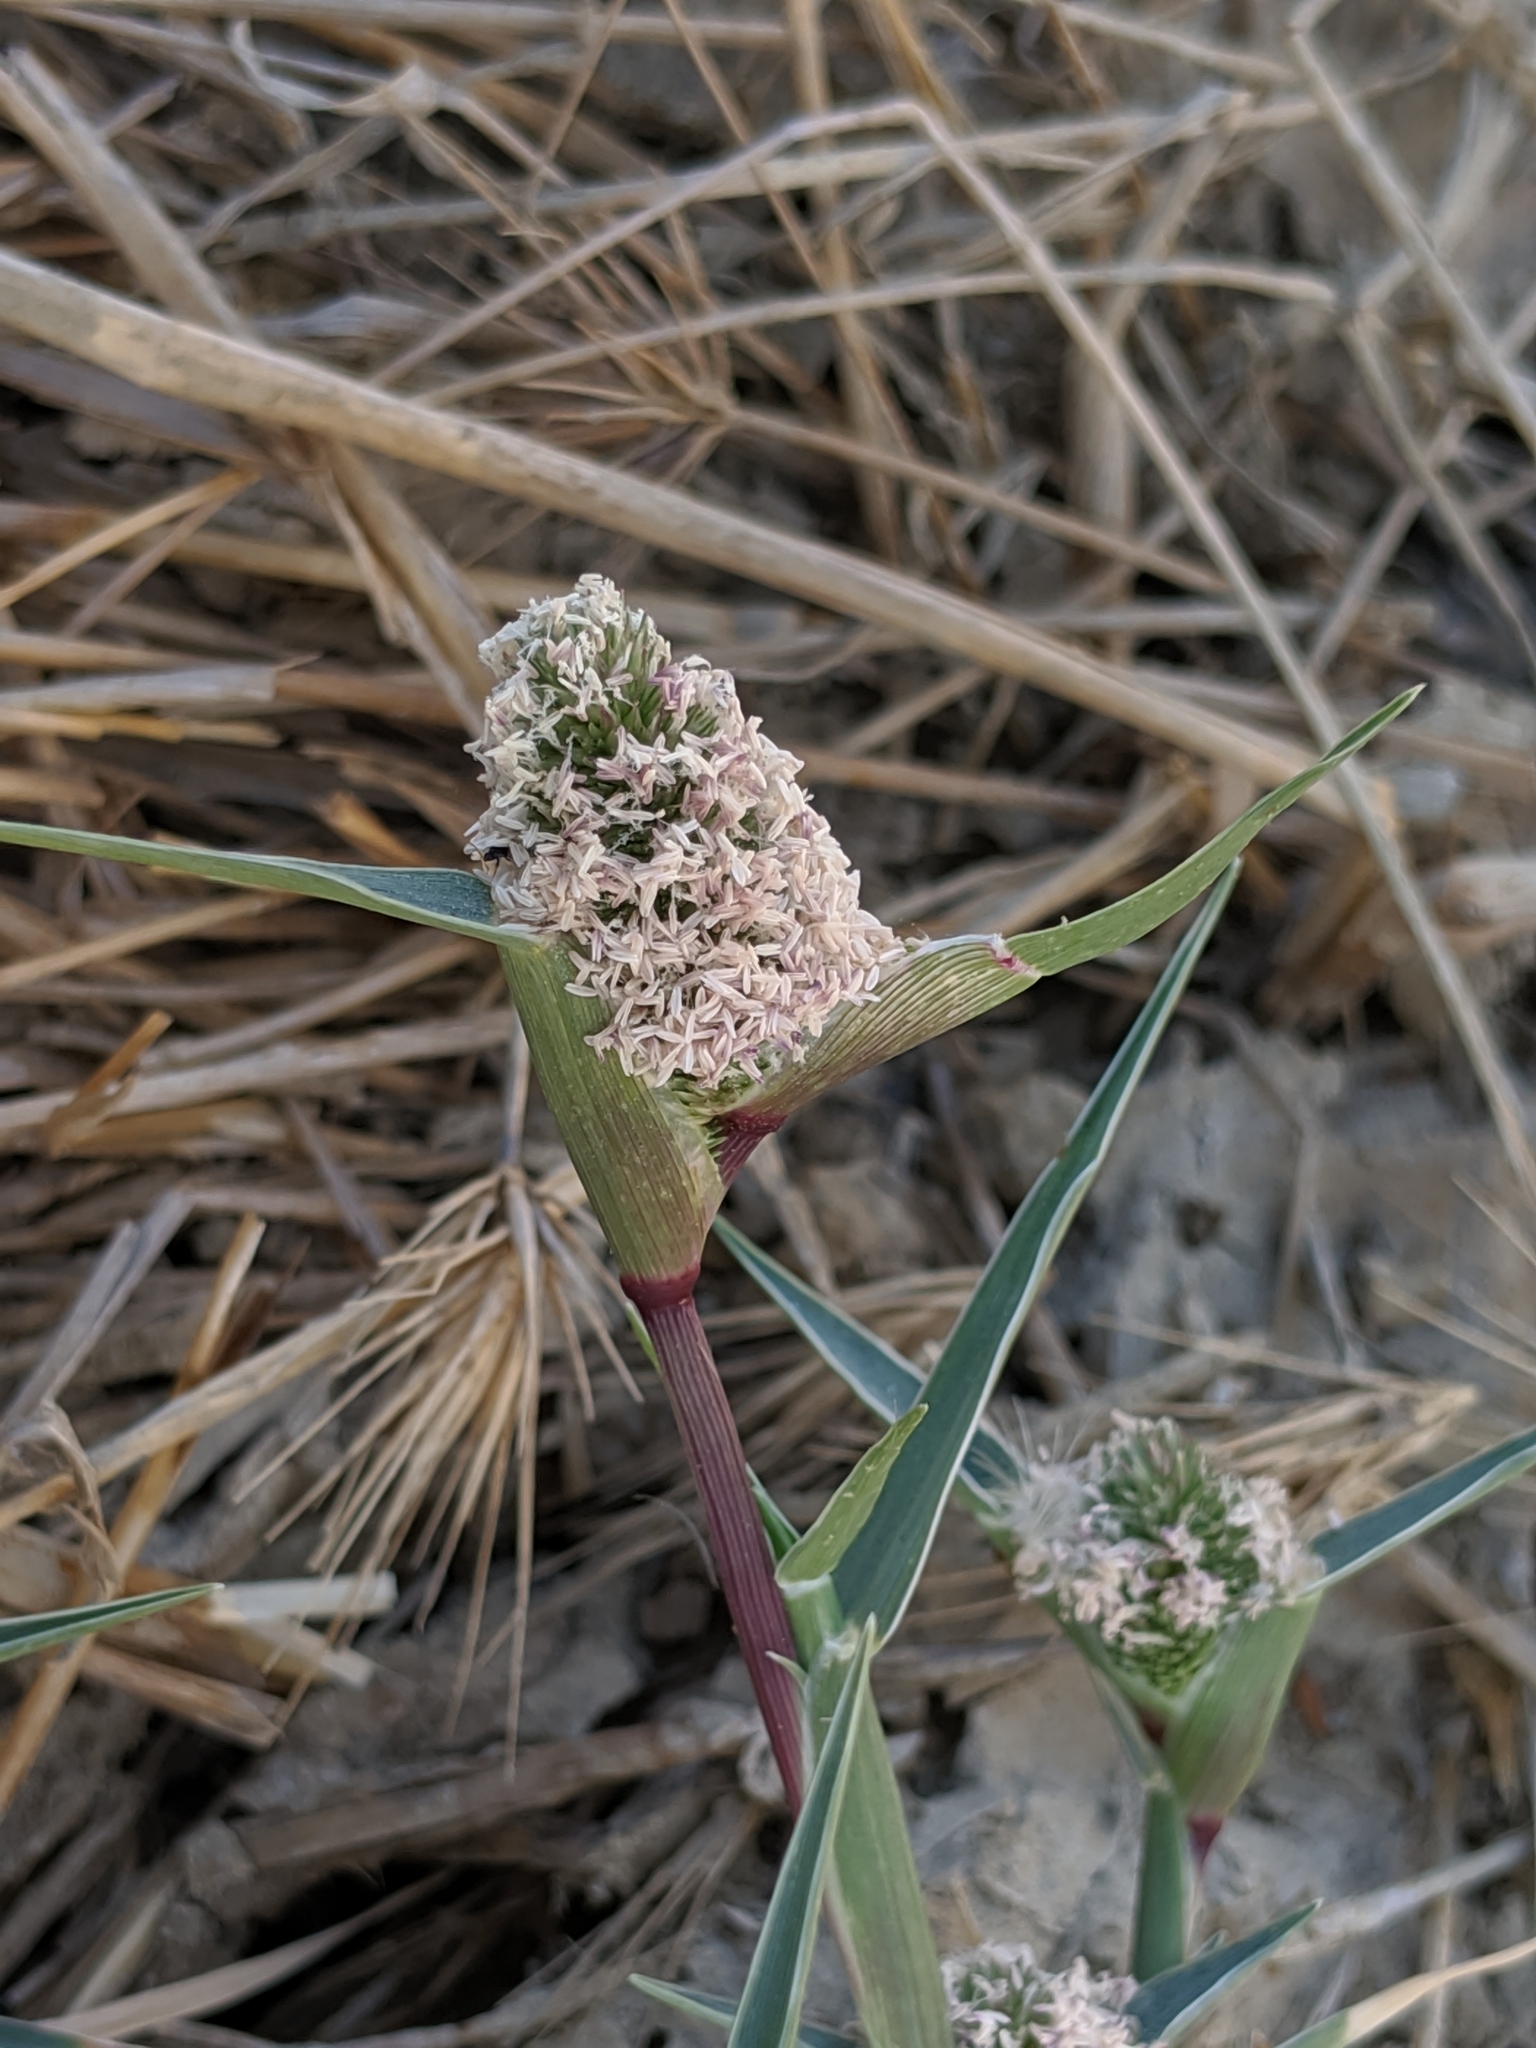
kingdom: Plantae
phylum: Tracheophyta
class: Liliopsida
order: Poales
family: Poaceae
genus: Sporobolus
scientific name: Sporobolus schoenoides
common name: Rush-like timothy
